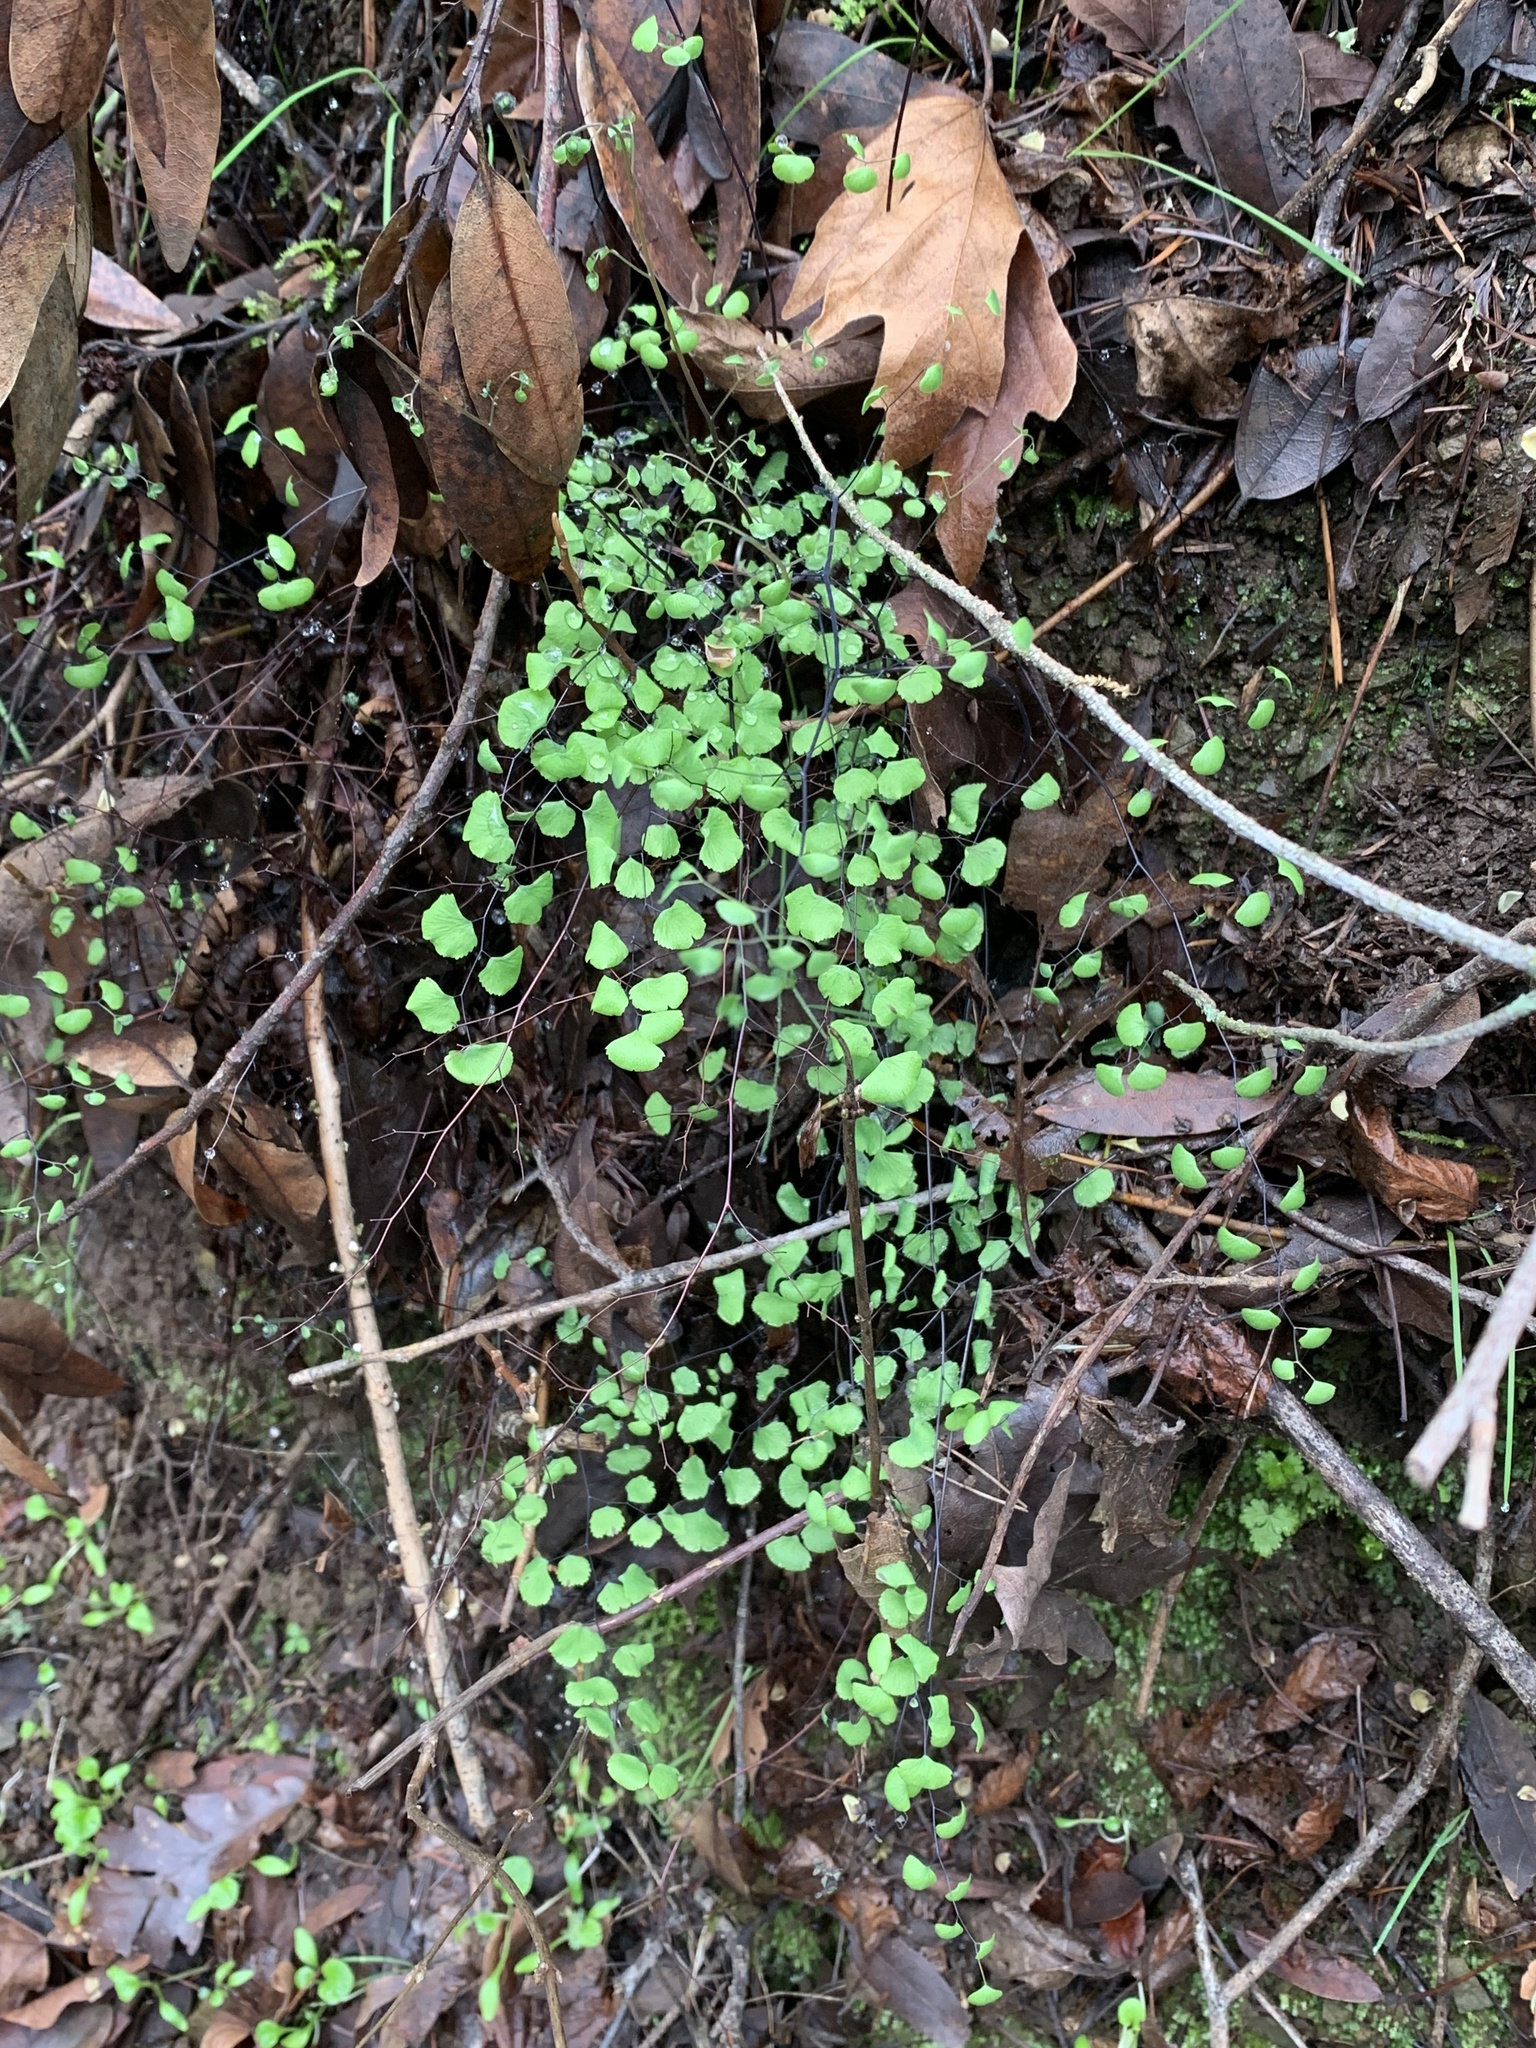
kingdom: Plantae
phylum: Tracheophyta
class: Polypodiopsida
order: Polypodiales
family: Pteridaceae
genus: Adiantum
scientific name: Adiantum jordanii
